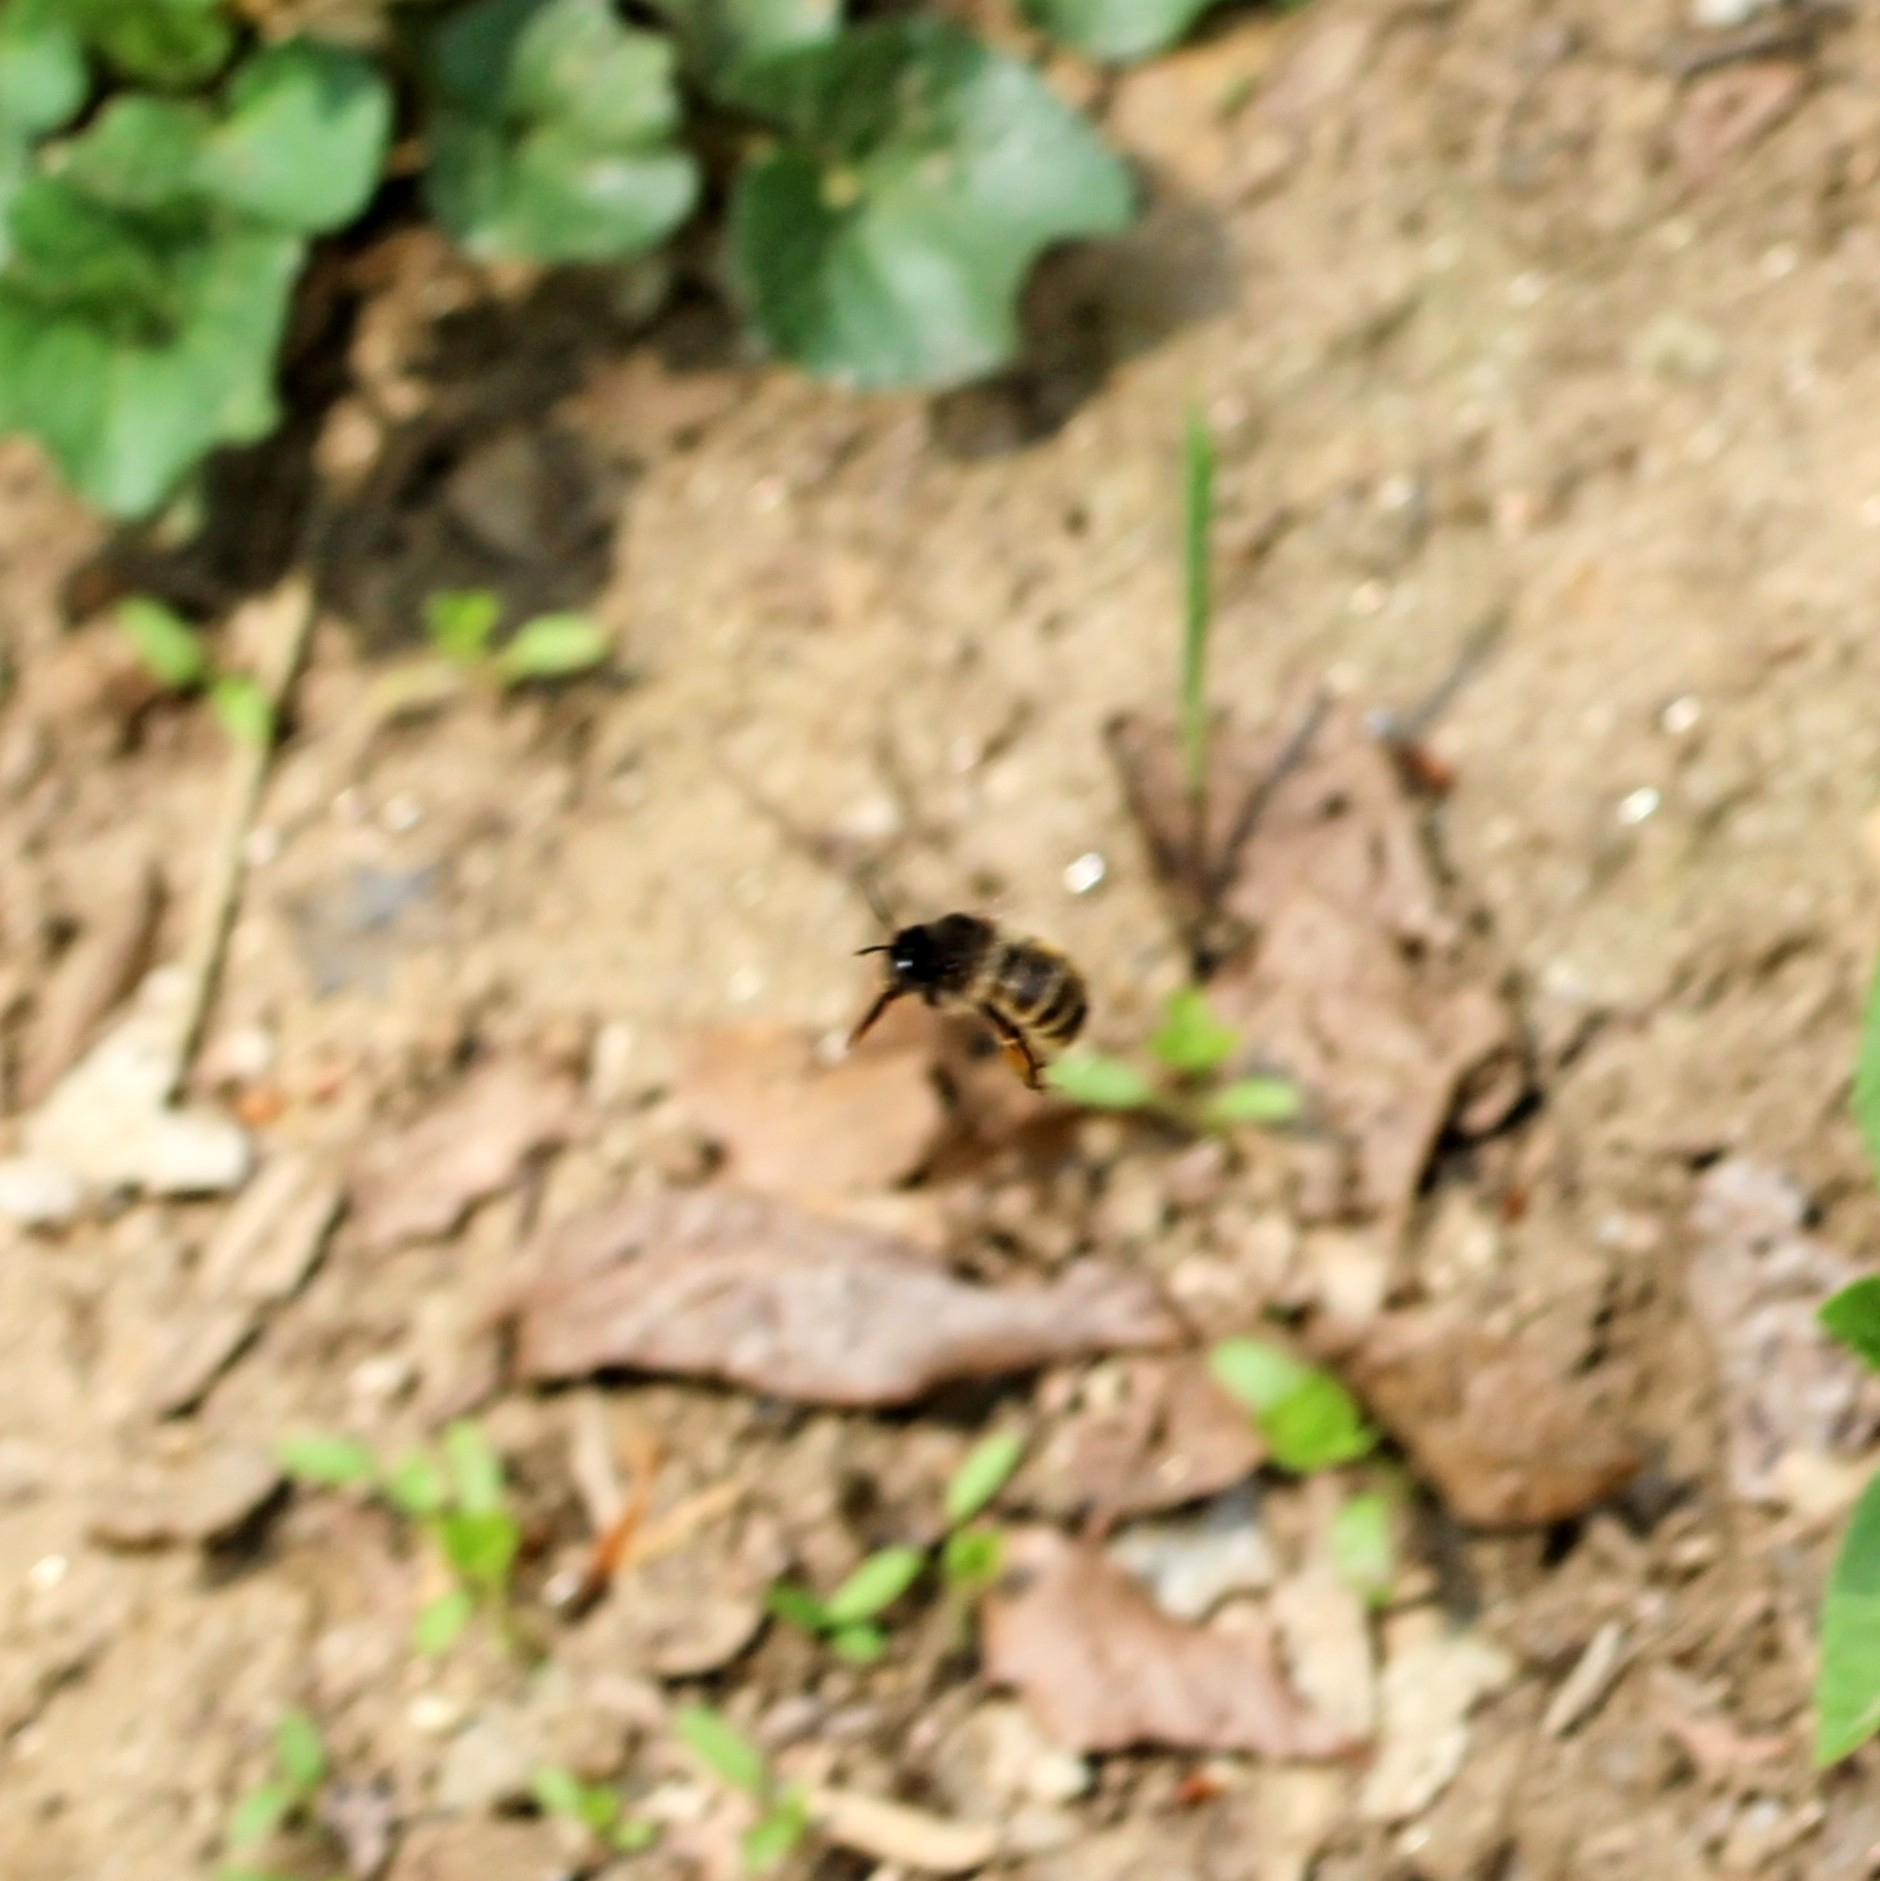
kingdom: Animalia
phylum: Arthropoda
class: Insecta
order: Hymenoptera
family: Apidae
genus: Anthophora
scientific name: Anthophora villosula
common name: Asian shaggy digger
